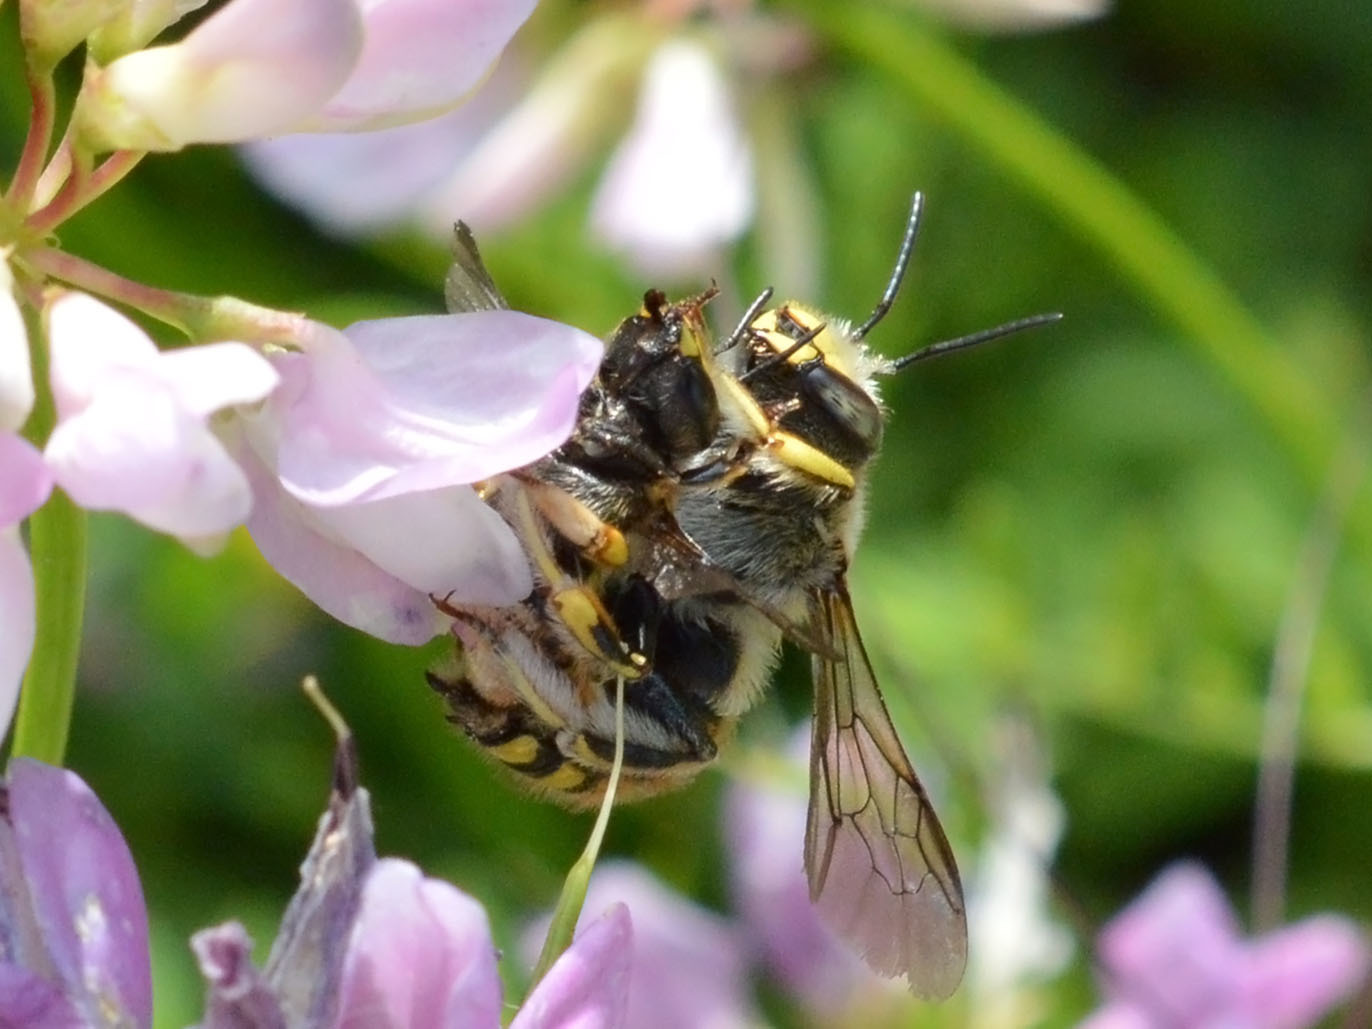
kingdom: Animalia
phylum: Arthropoda
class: Insecta
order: Hymenoptera
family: Megachilidae
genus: Anthidium
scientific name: Anthidium manicatum
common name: Wool carder bee
